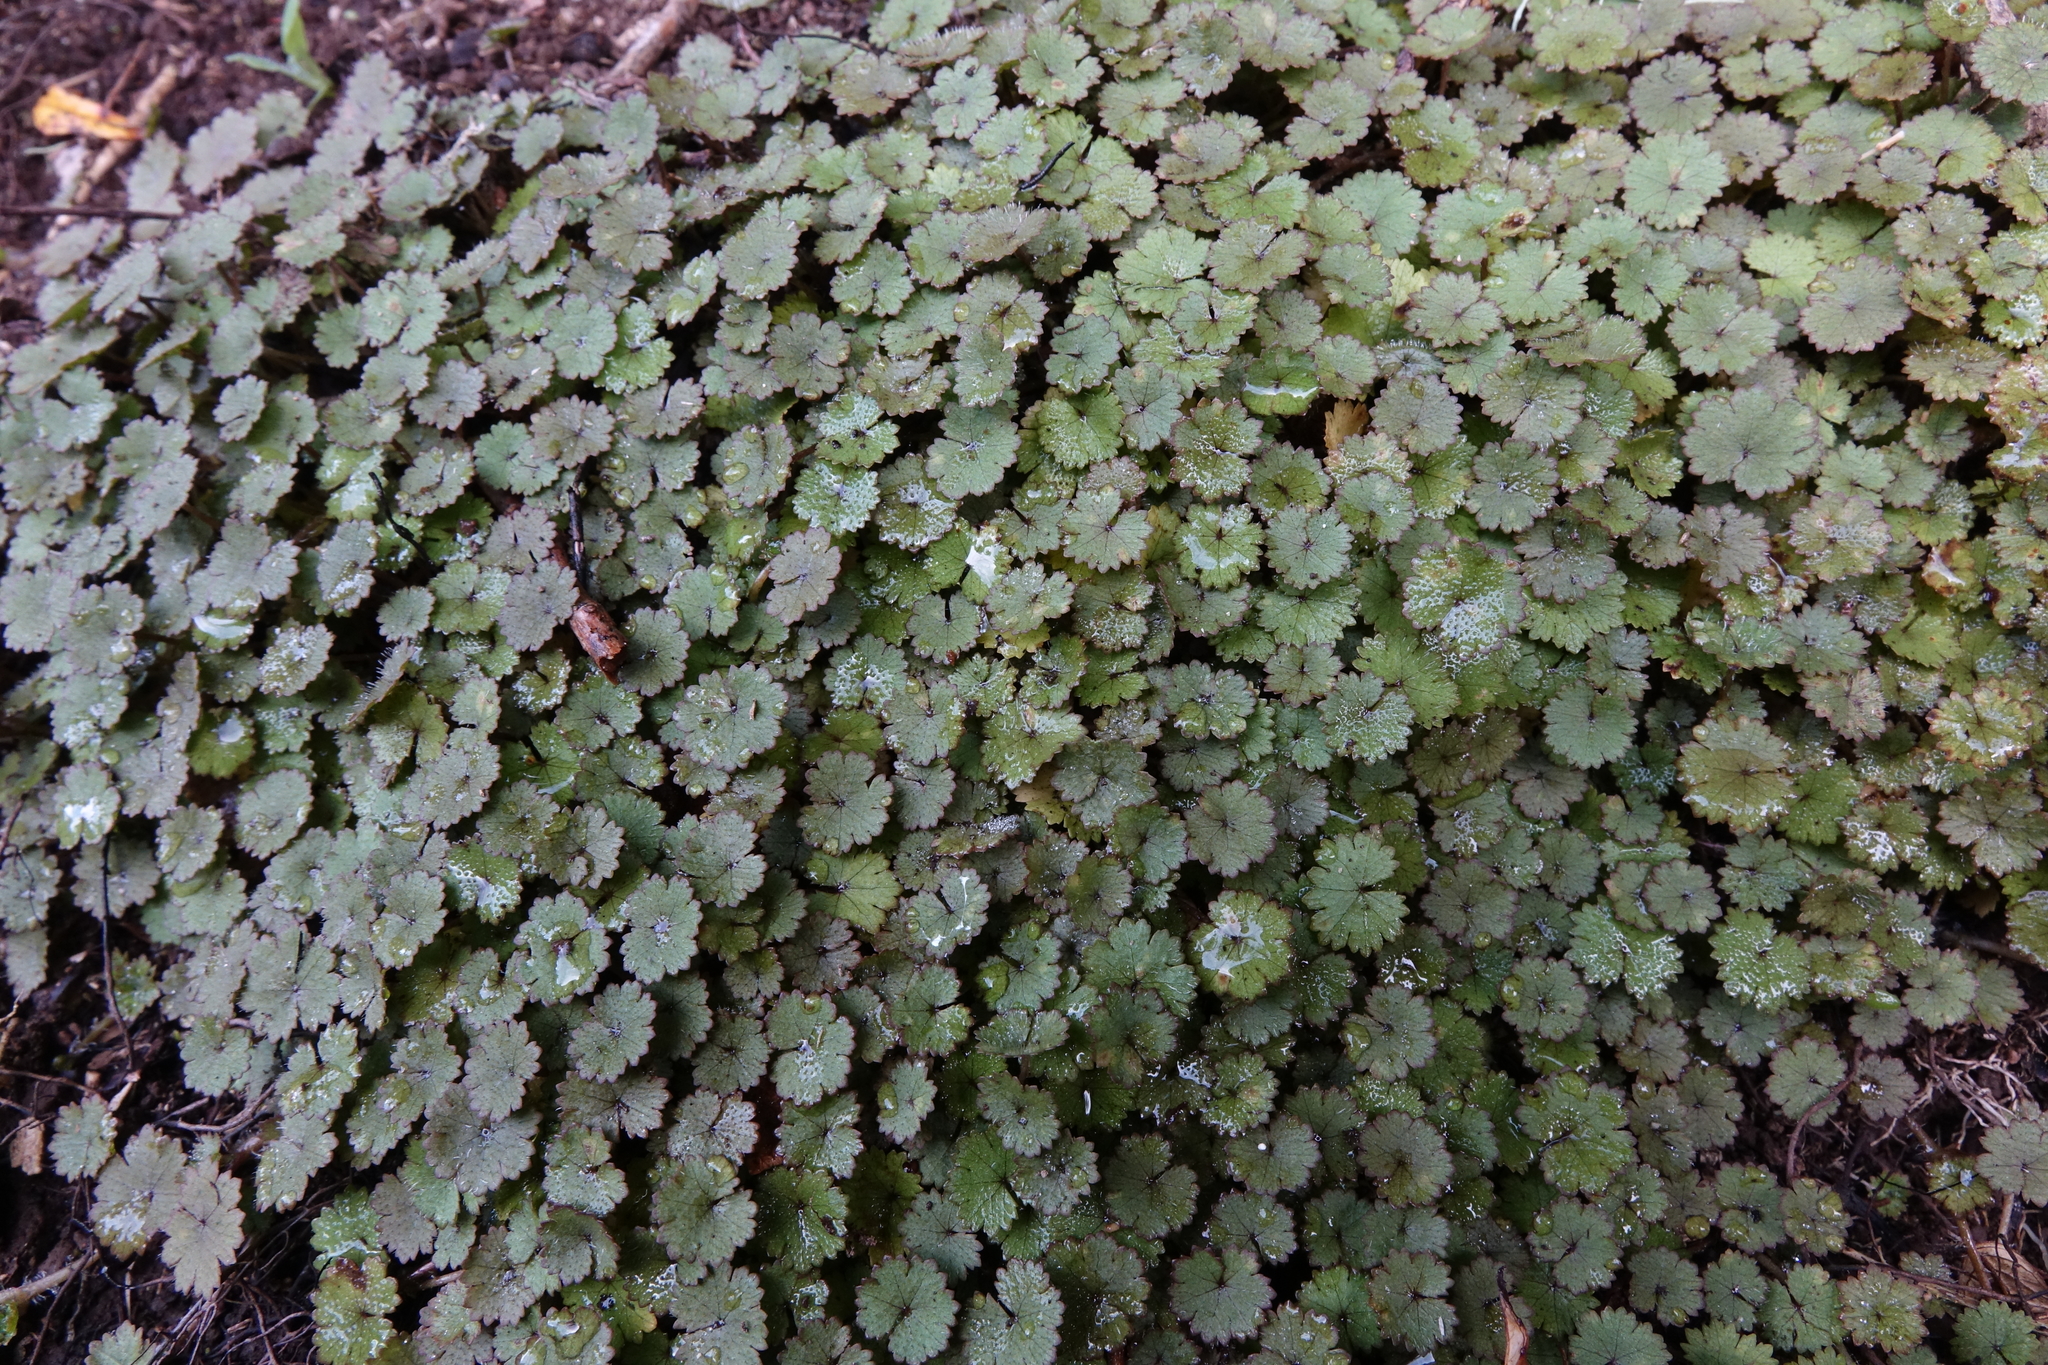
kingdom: Plantae
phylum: Tracheophyta
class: Magnoliopsida
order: Apiales
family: Araliaceae
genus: Hydrocotyle
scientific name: Hydrocotyle moschata
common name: Hairy pennywort
